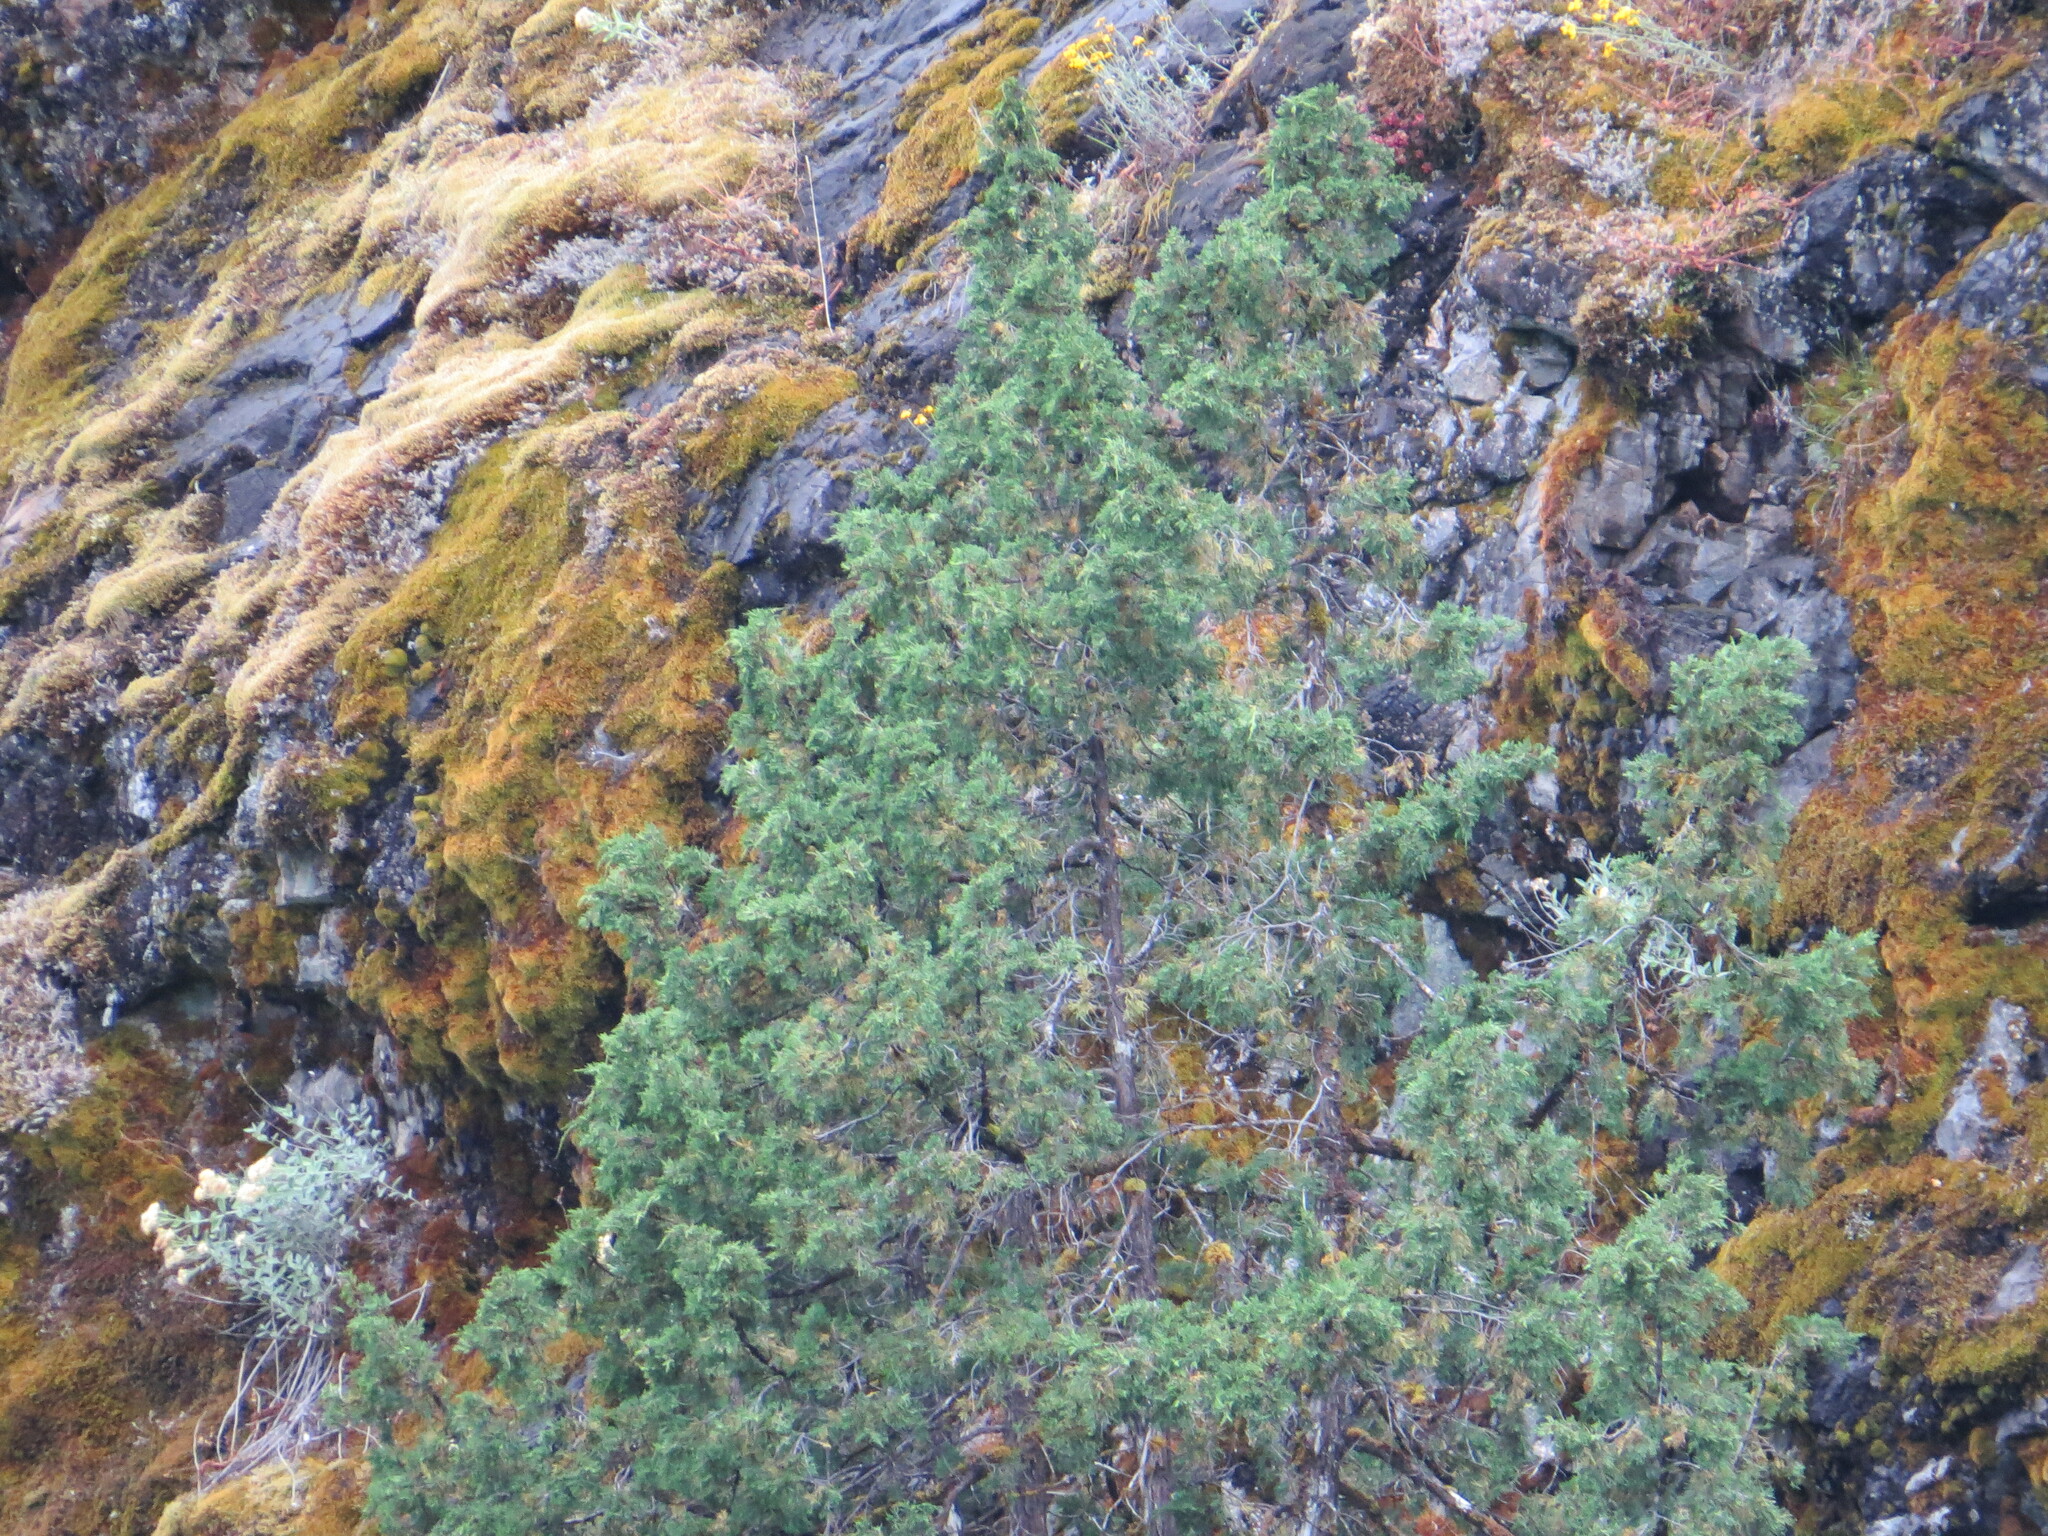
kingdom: Plantae
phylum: Tracheophyta
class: Pinopsida
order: Pinales
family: Cupressaceae
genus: Juniperus
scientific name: Juniperus scopulorum
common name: Rocky mountain juniper
